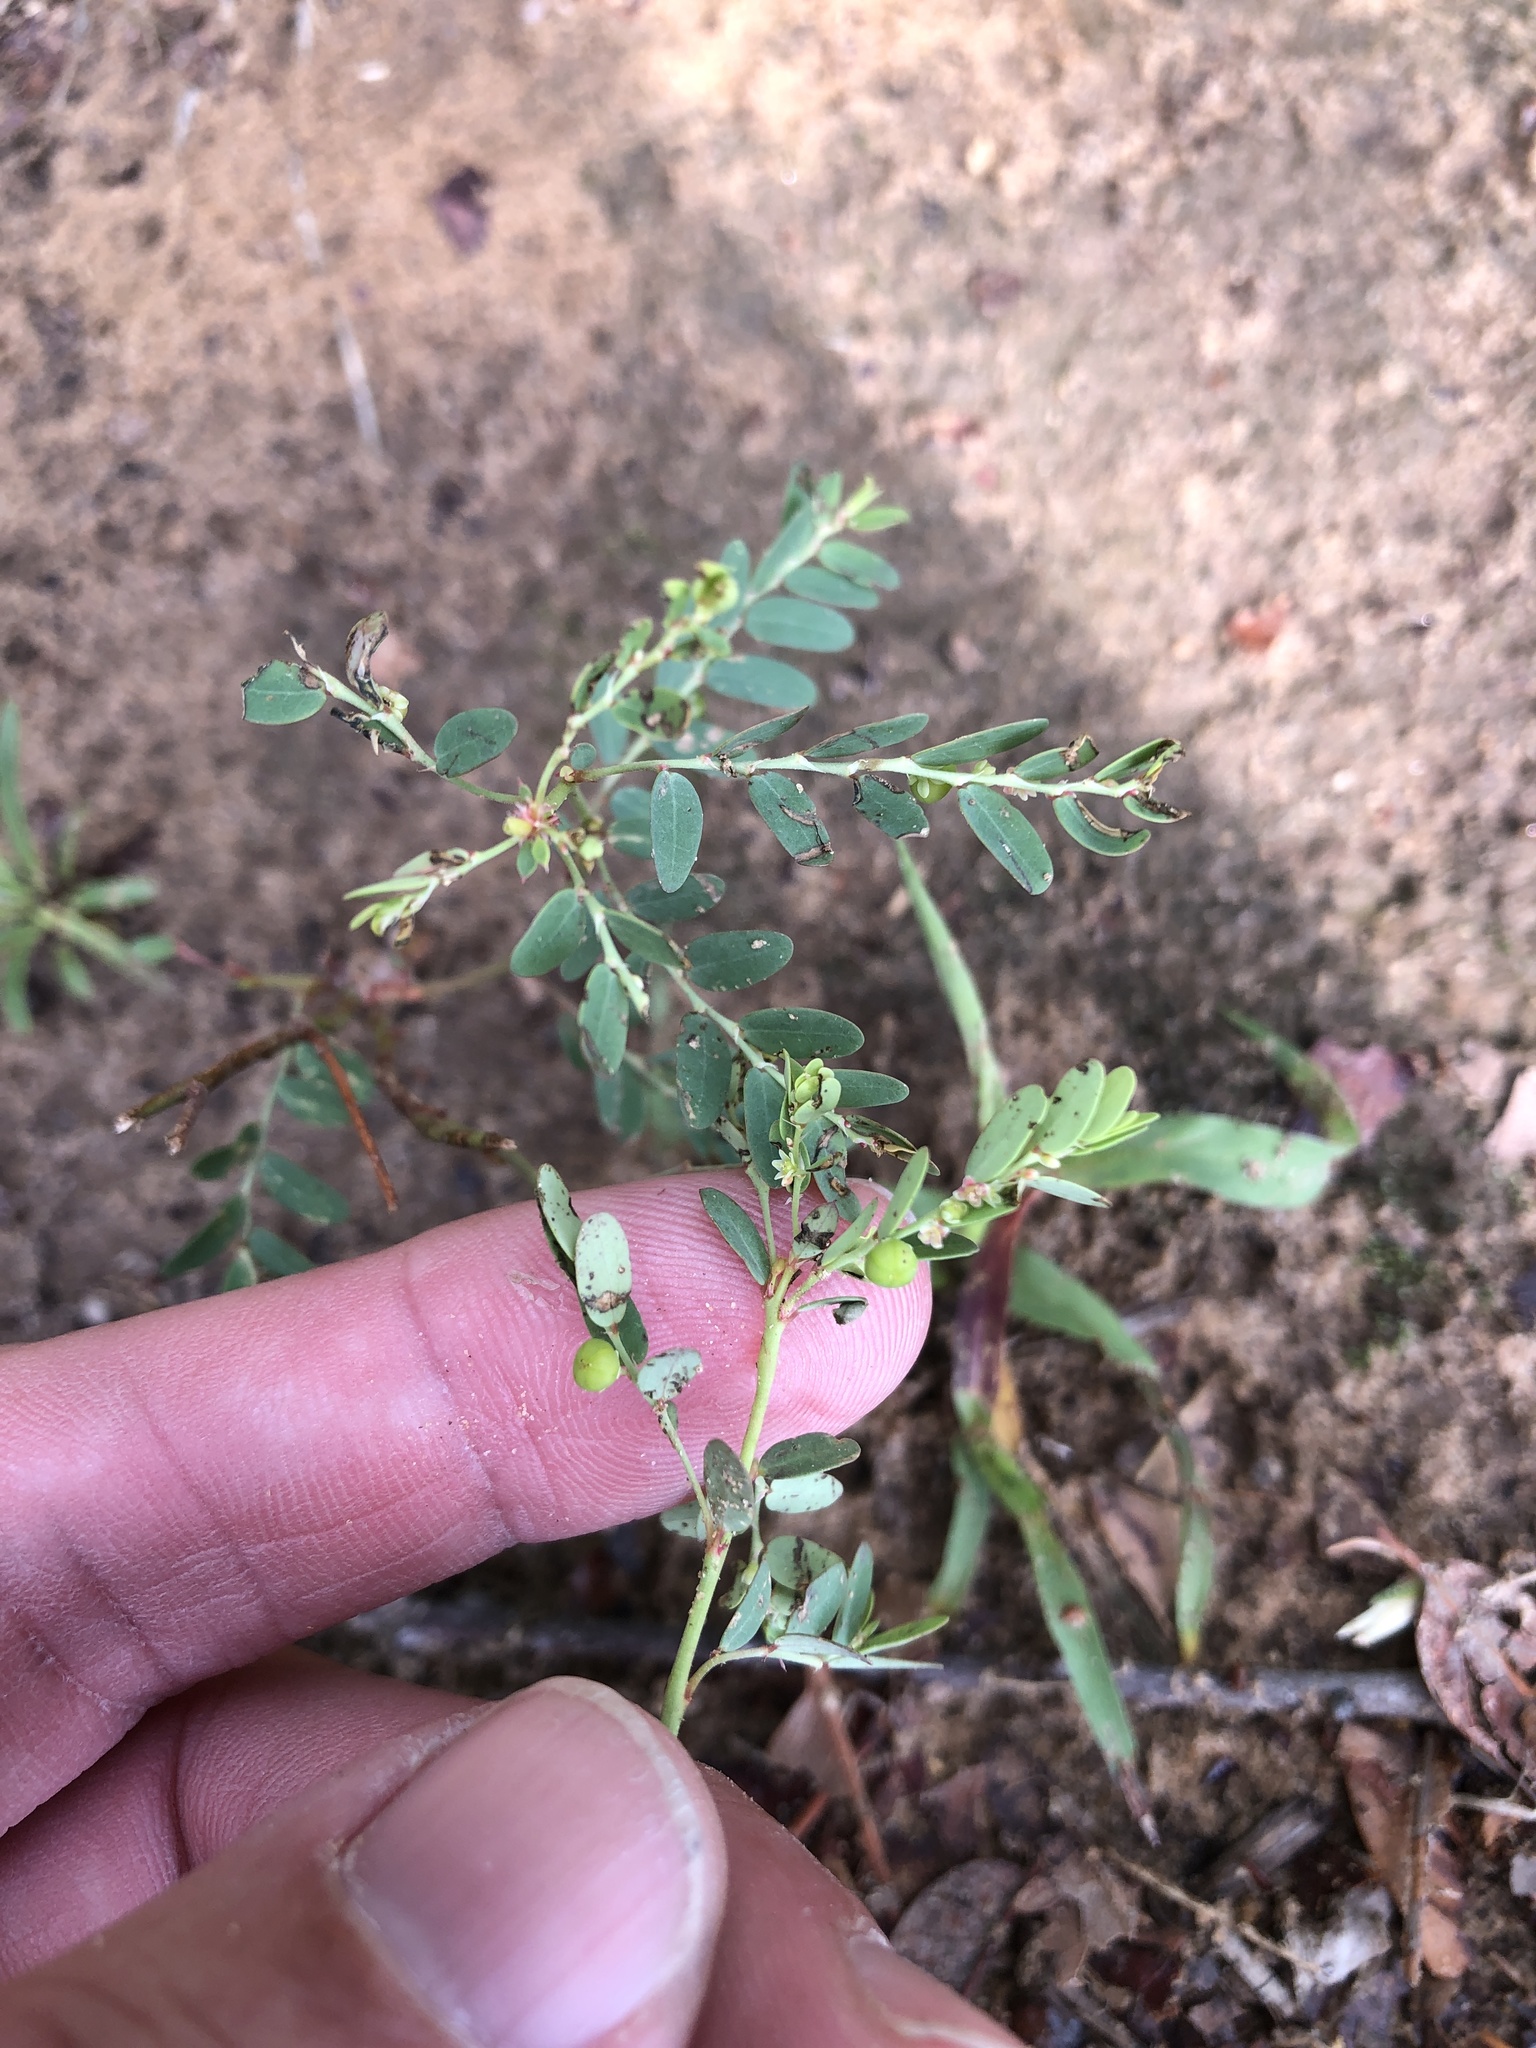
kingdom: Plantae
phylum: Tracheophyta
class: Magnoliopsida
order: Malpighiales
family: Phyllanthaceae
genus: Phyllanthus
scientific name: Phyllanthus urinaria
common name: Chamber bitter
